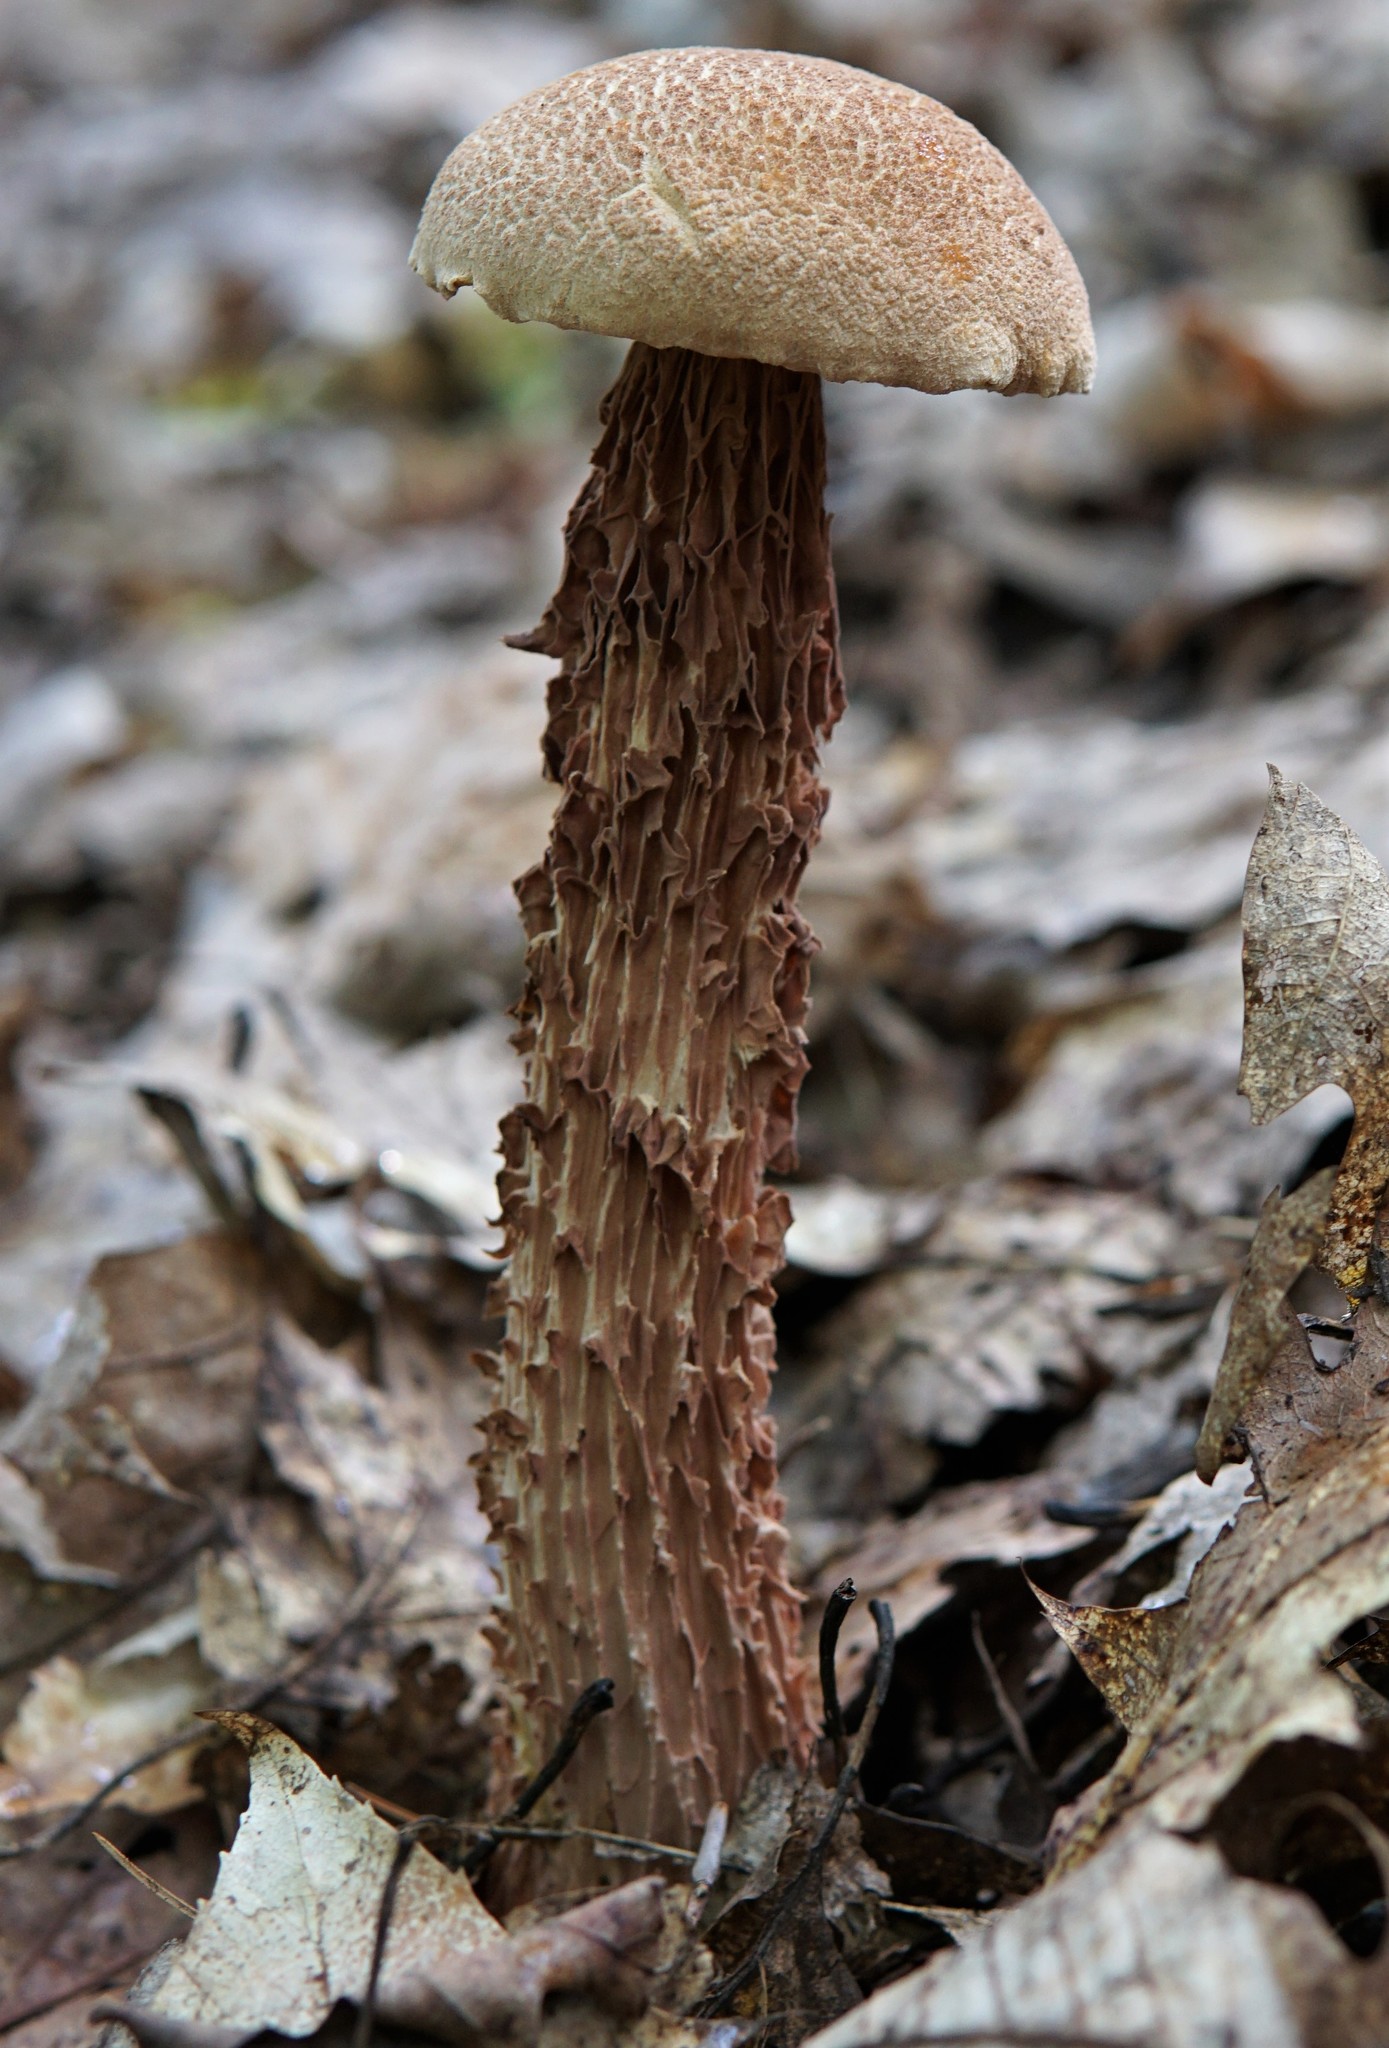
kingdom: Fungi
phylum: Basidiomycota
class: Agaricomycetes
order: Boletales
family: Boletaceae
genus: Aureoboletus
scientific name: Aureoboletus russellii
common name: Russell's bolete
